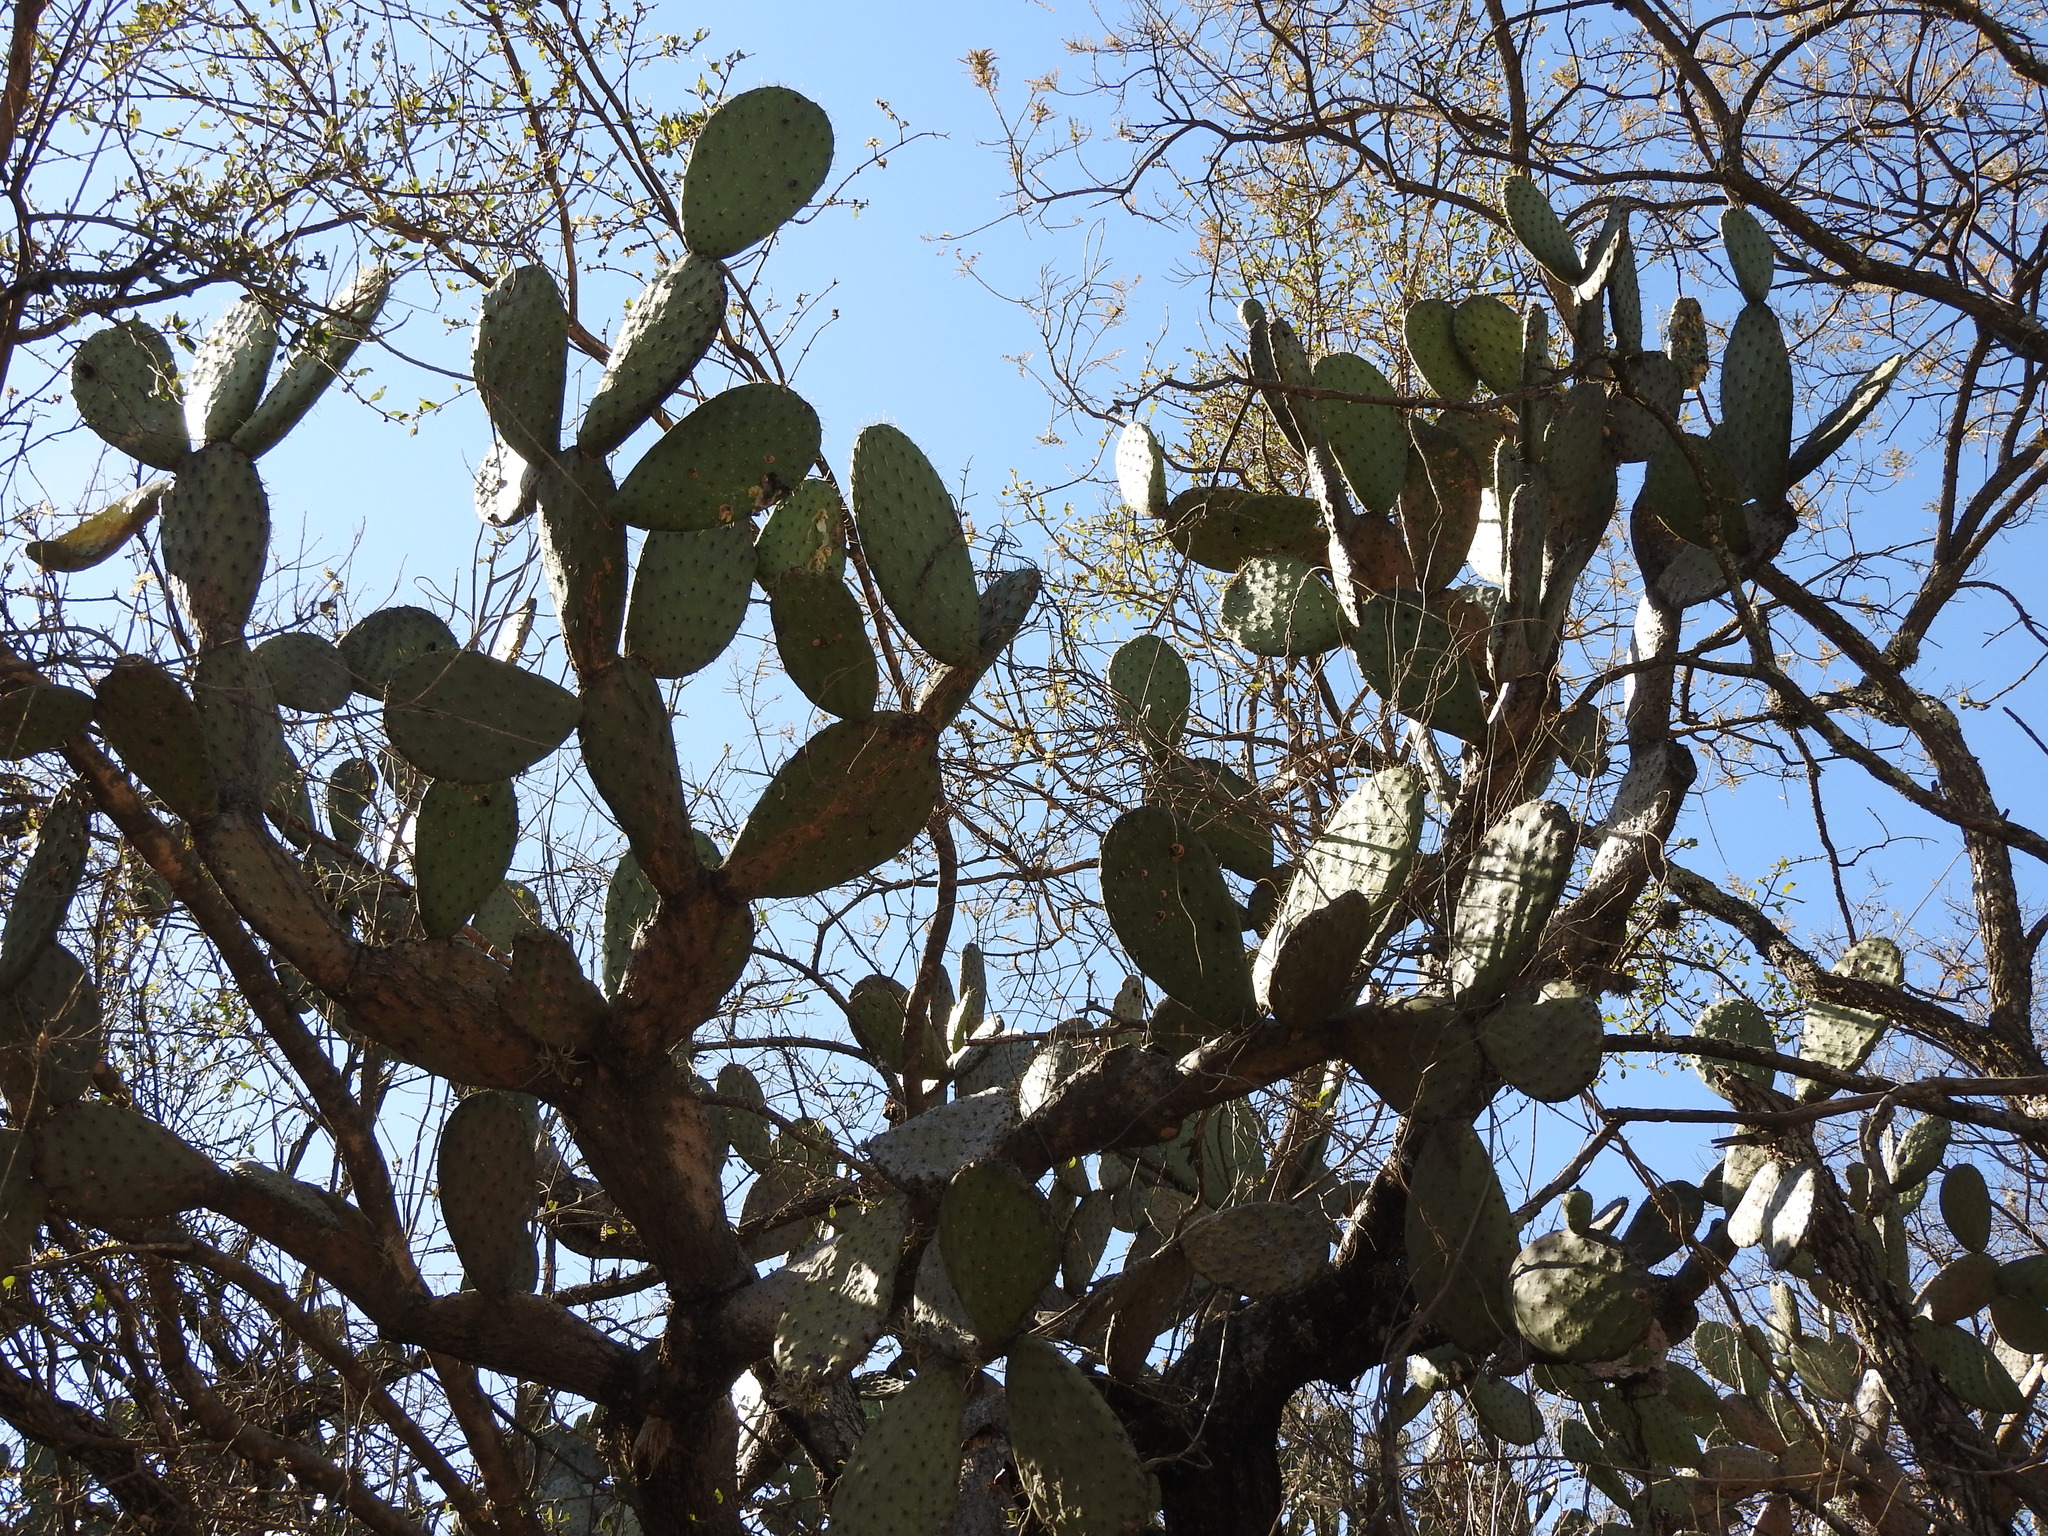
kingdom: Plantae
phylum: Tracheophyta
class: Magnoliopsida
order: Caryophyllales
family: Cactaceae
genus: Opuntia
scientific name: Opuntia hyptiacantha
